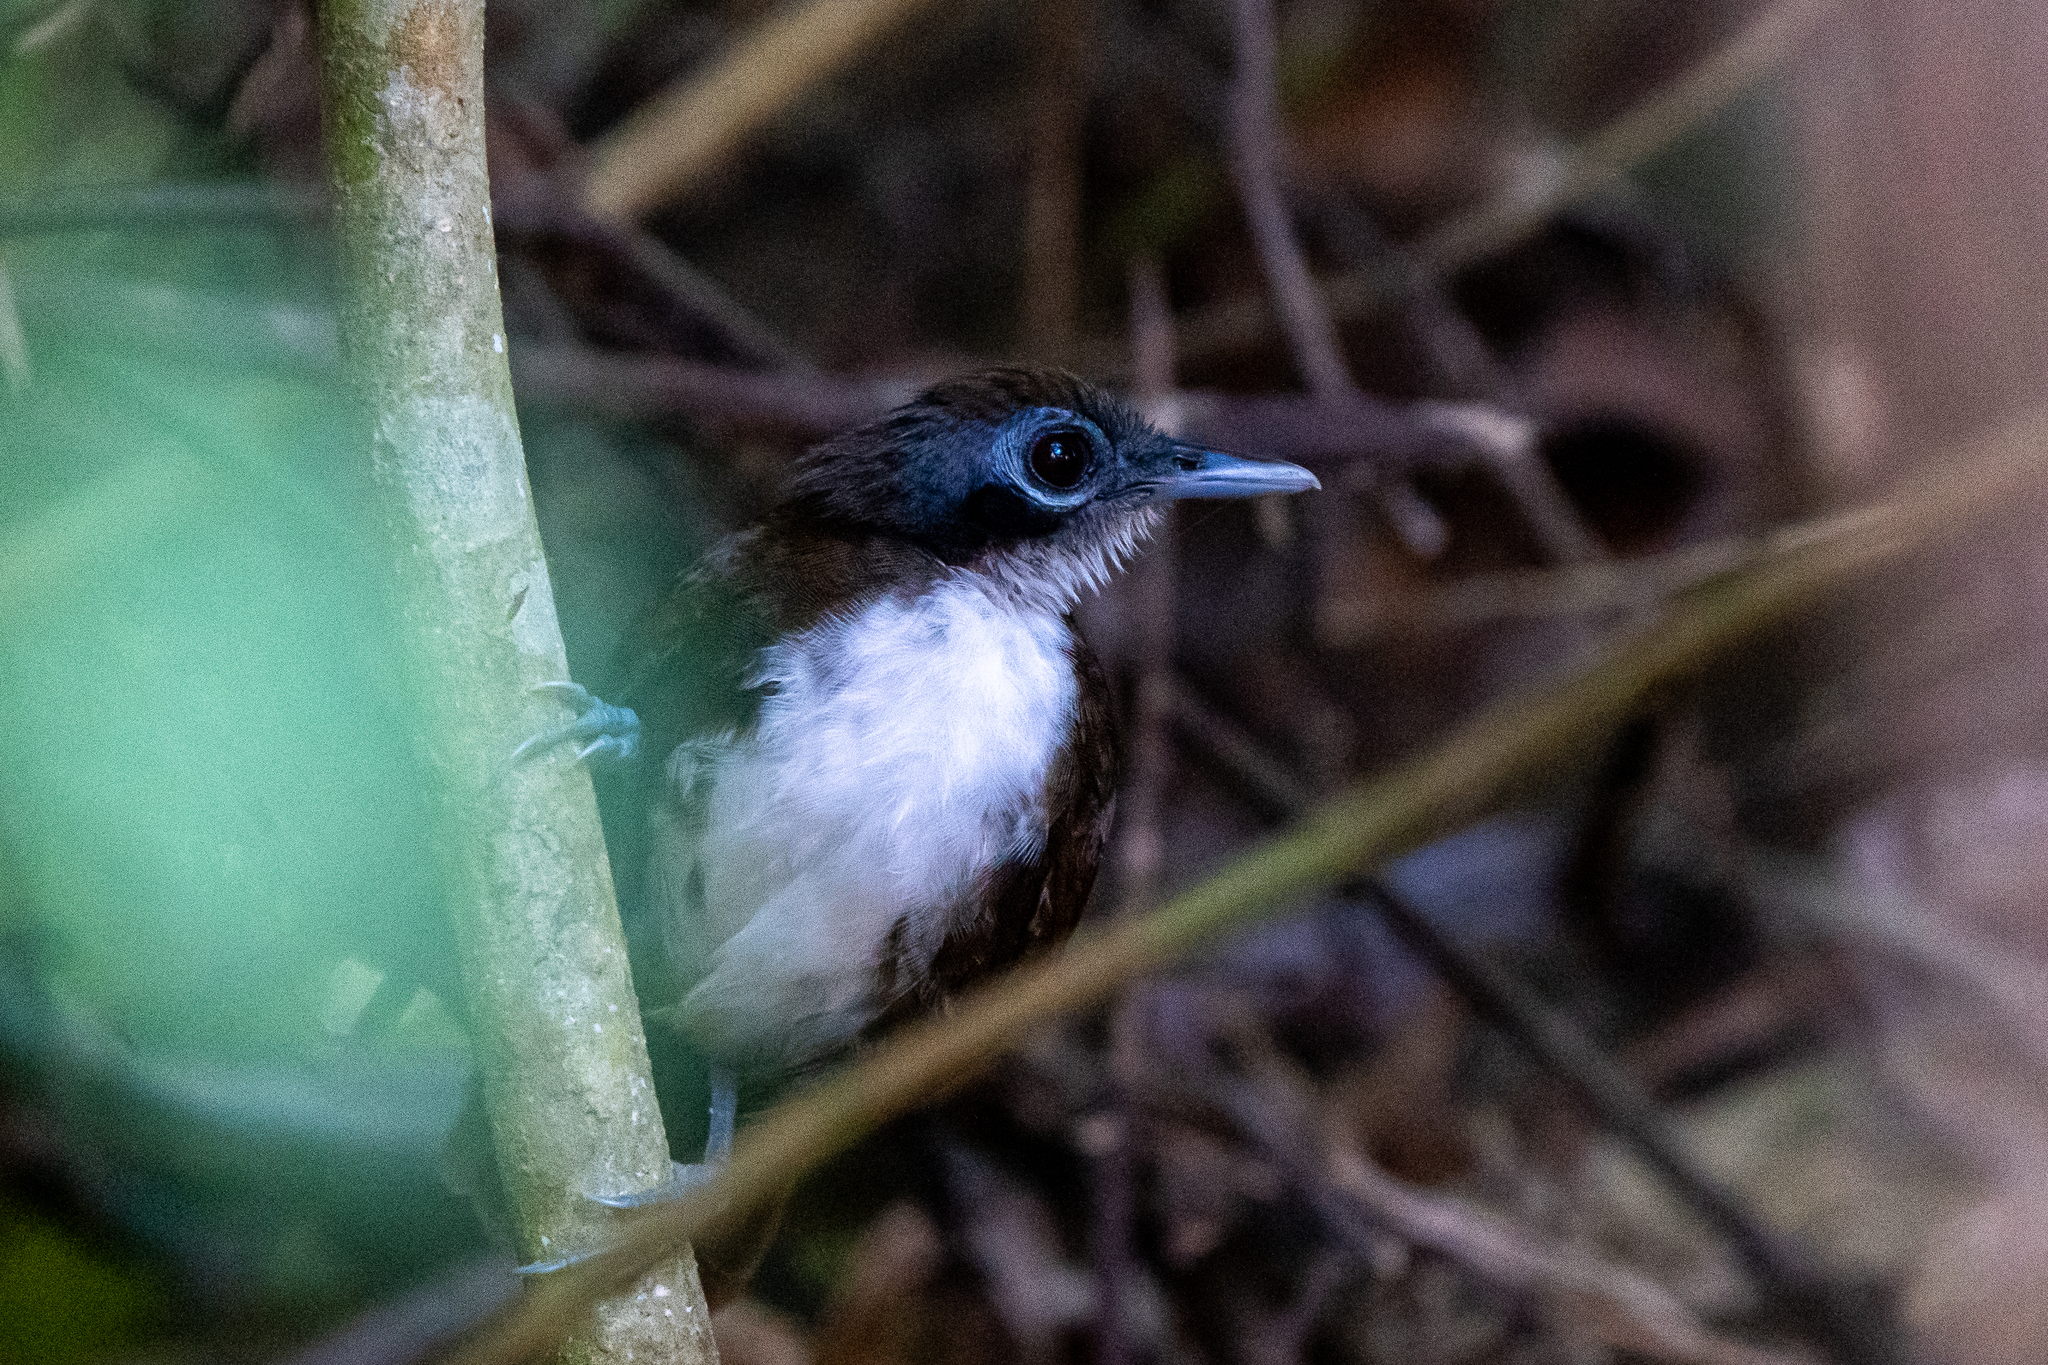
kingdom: Animalia
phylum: Chordata
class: Aves
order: Passeriformes
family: Thamnophilidae
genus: Gymnopithys
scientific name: Gymnopithys leucaspis
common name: White-cheeked antbird
